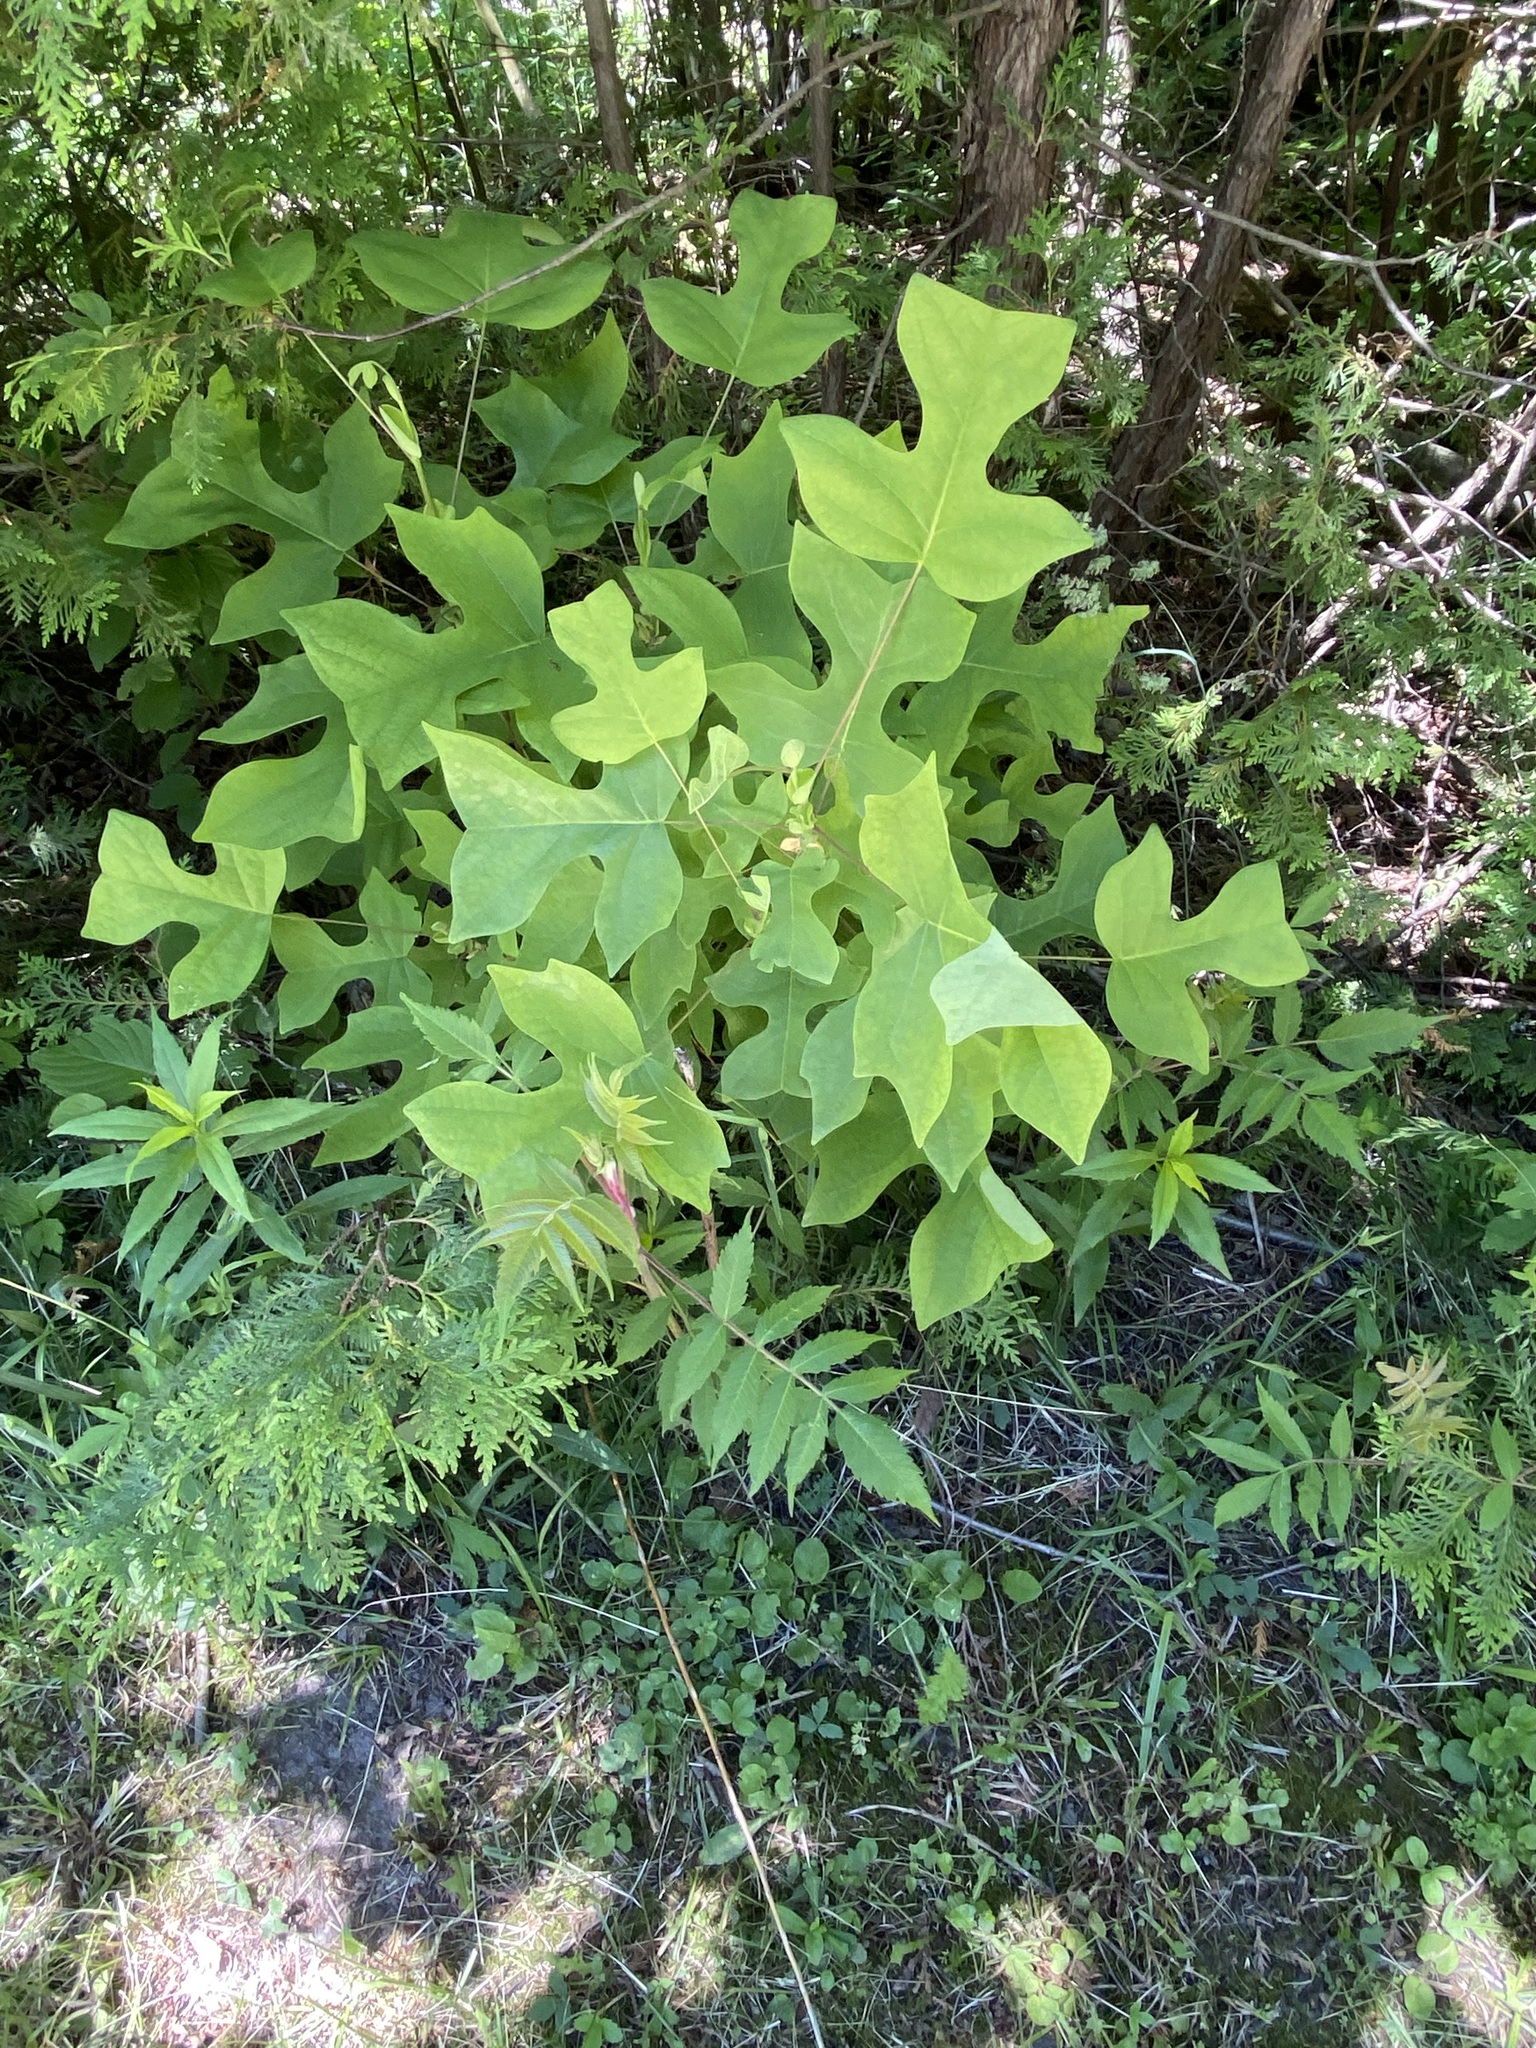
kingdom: Plantae
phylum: Tracheophyta
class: Magnoliopsida
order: Magnoliales
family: Magnoliaceae
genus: Liriodendron
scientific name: Liriodendron tulipifera
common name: Tulip tree
